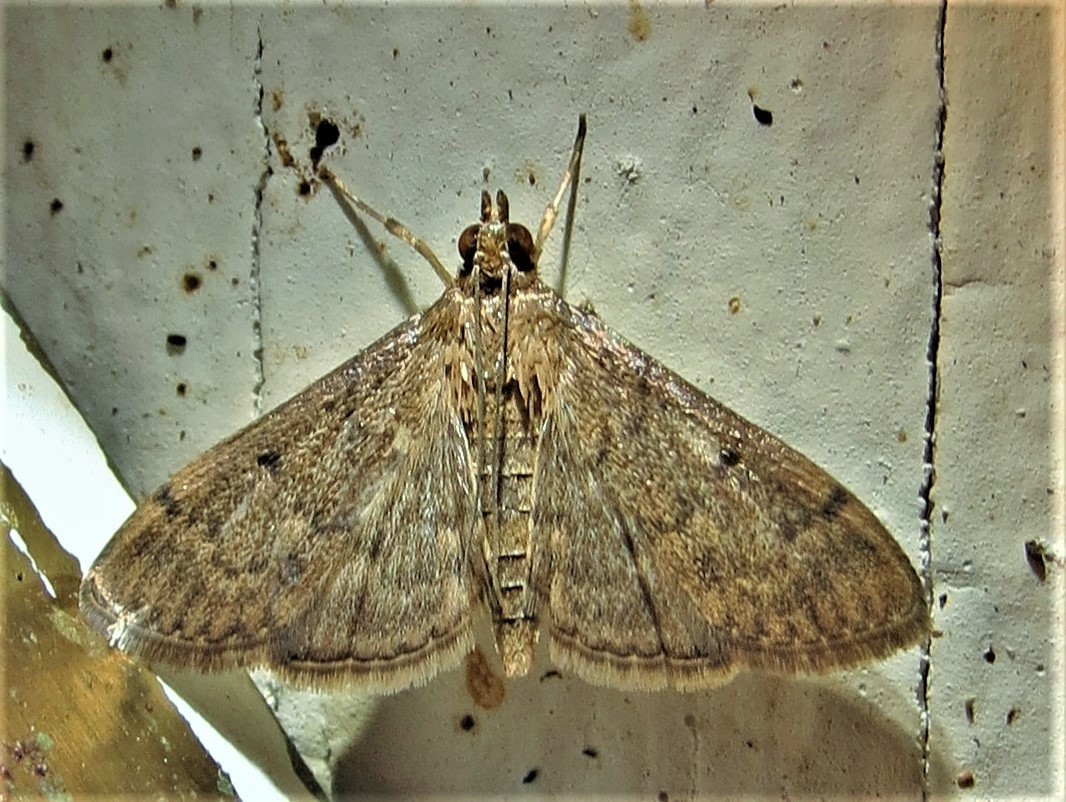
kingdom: Animalia
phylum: Arthropoda
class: Insecta
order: Lepidoptera
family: Crambidae
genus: Herpetogramma
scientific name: Herpetogramma phaeopteralis
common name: Dusky herpetogramma moth
